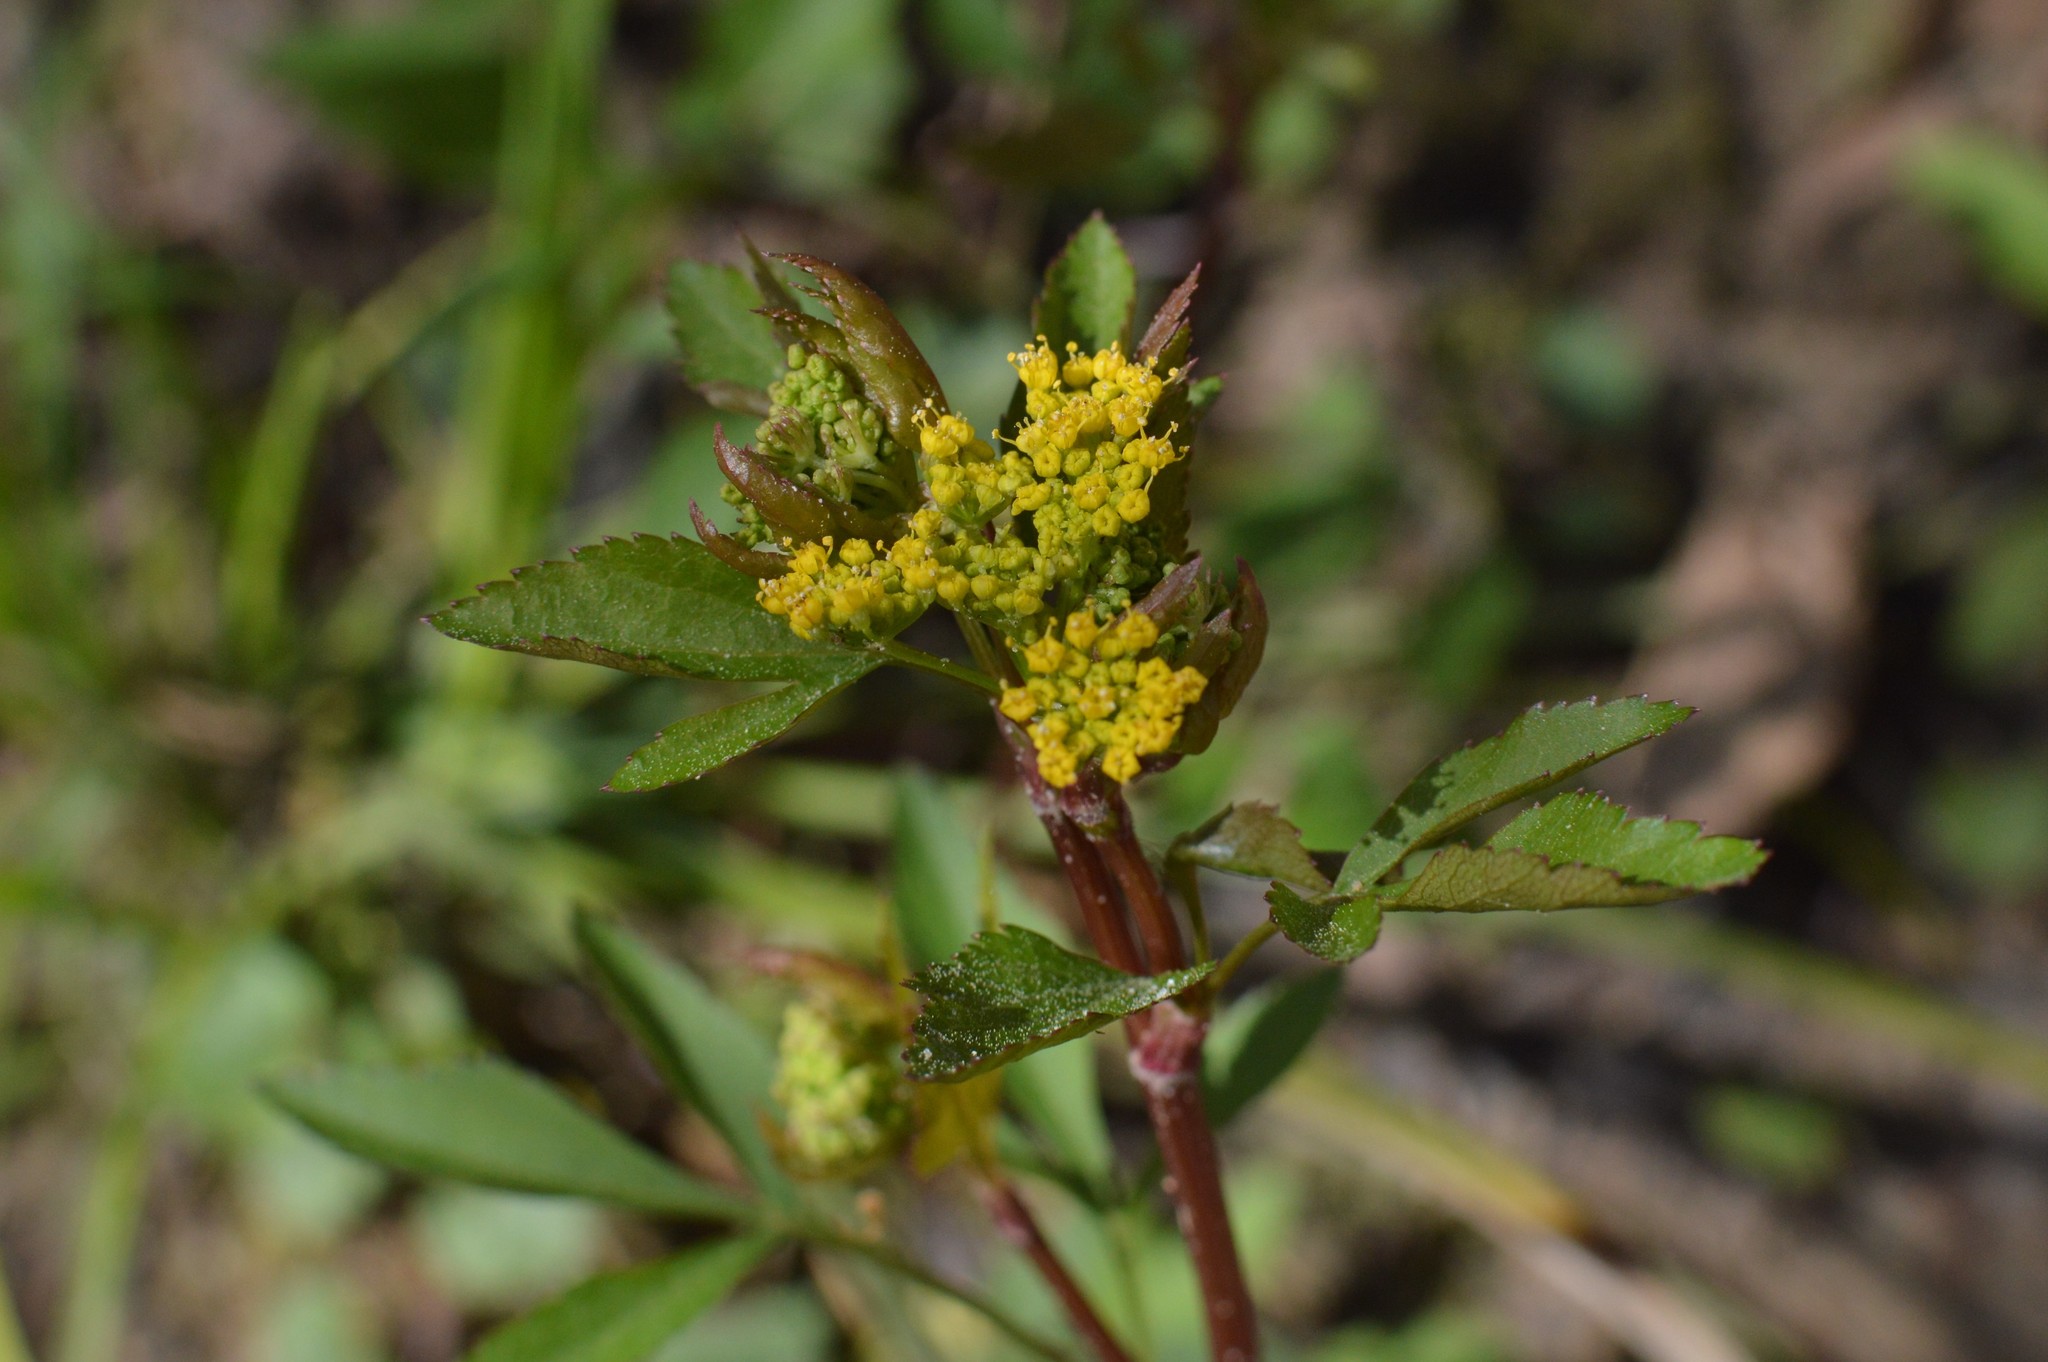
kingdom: Plantae
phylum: Tracheophyta
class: Magnoliopsida
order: Apiales
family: Apiaceae
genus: Zizia
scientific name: Zizia aurea
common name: Golden alexanders
